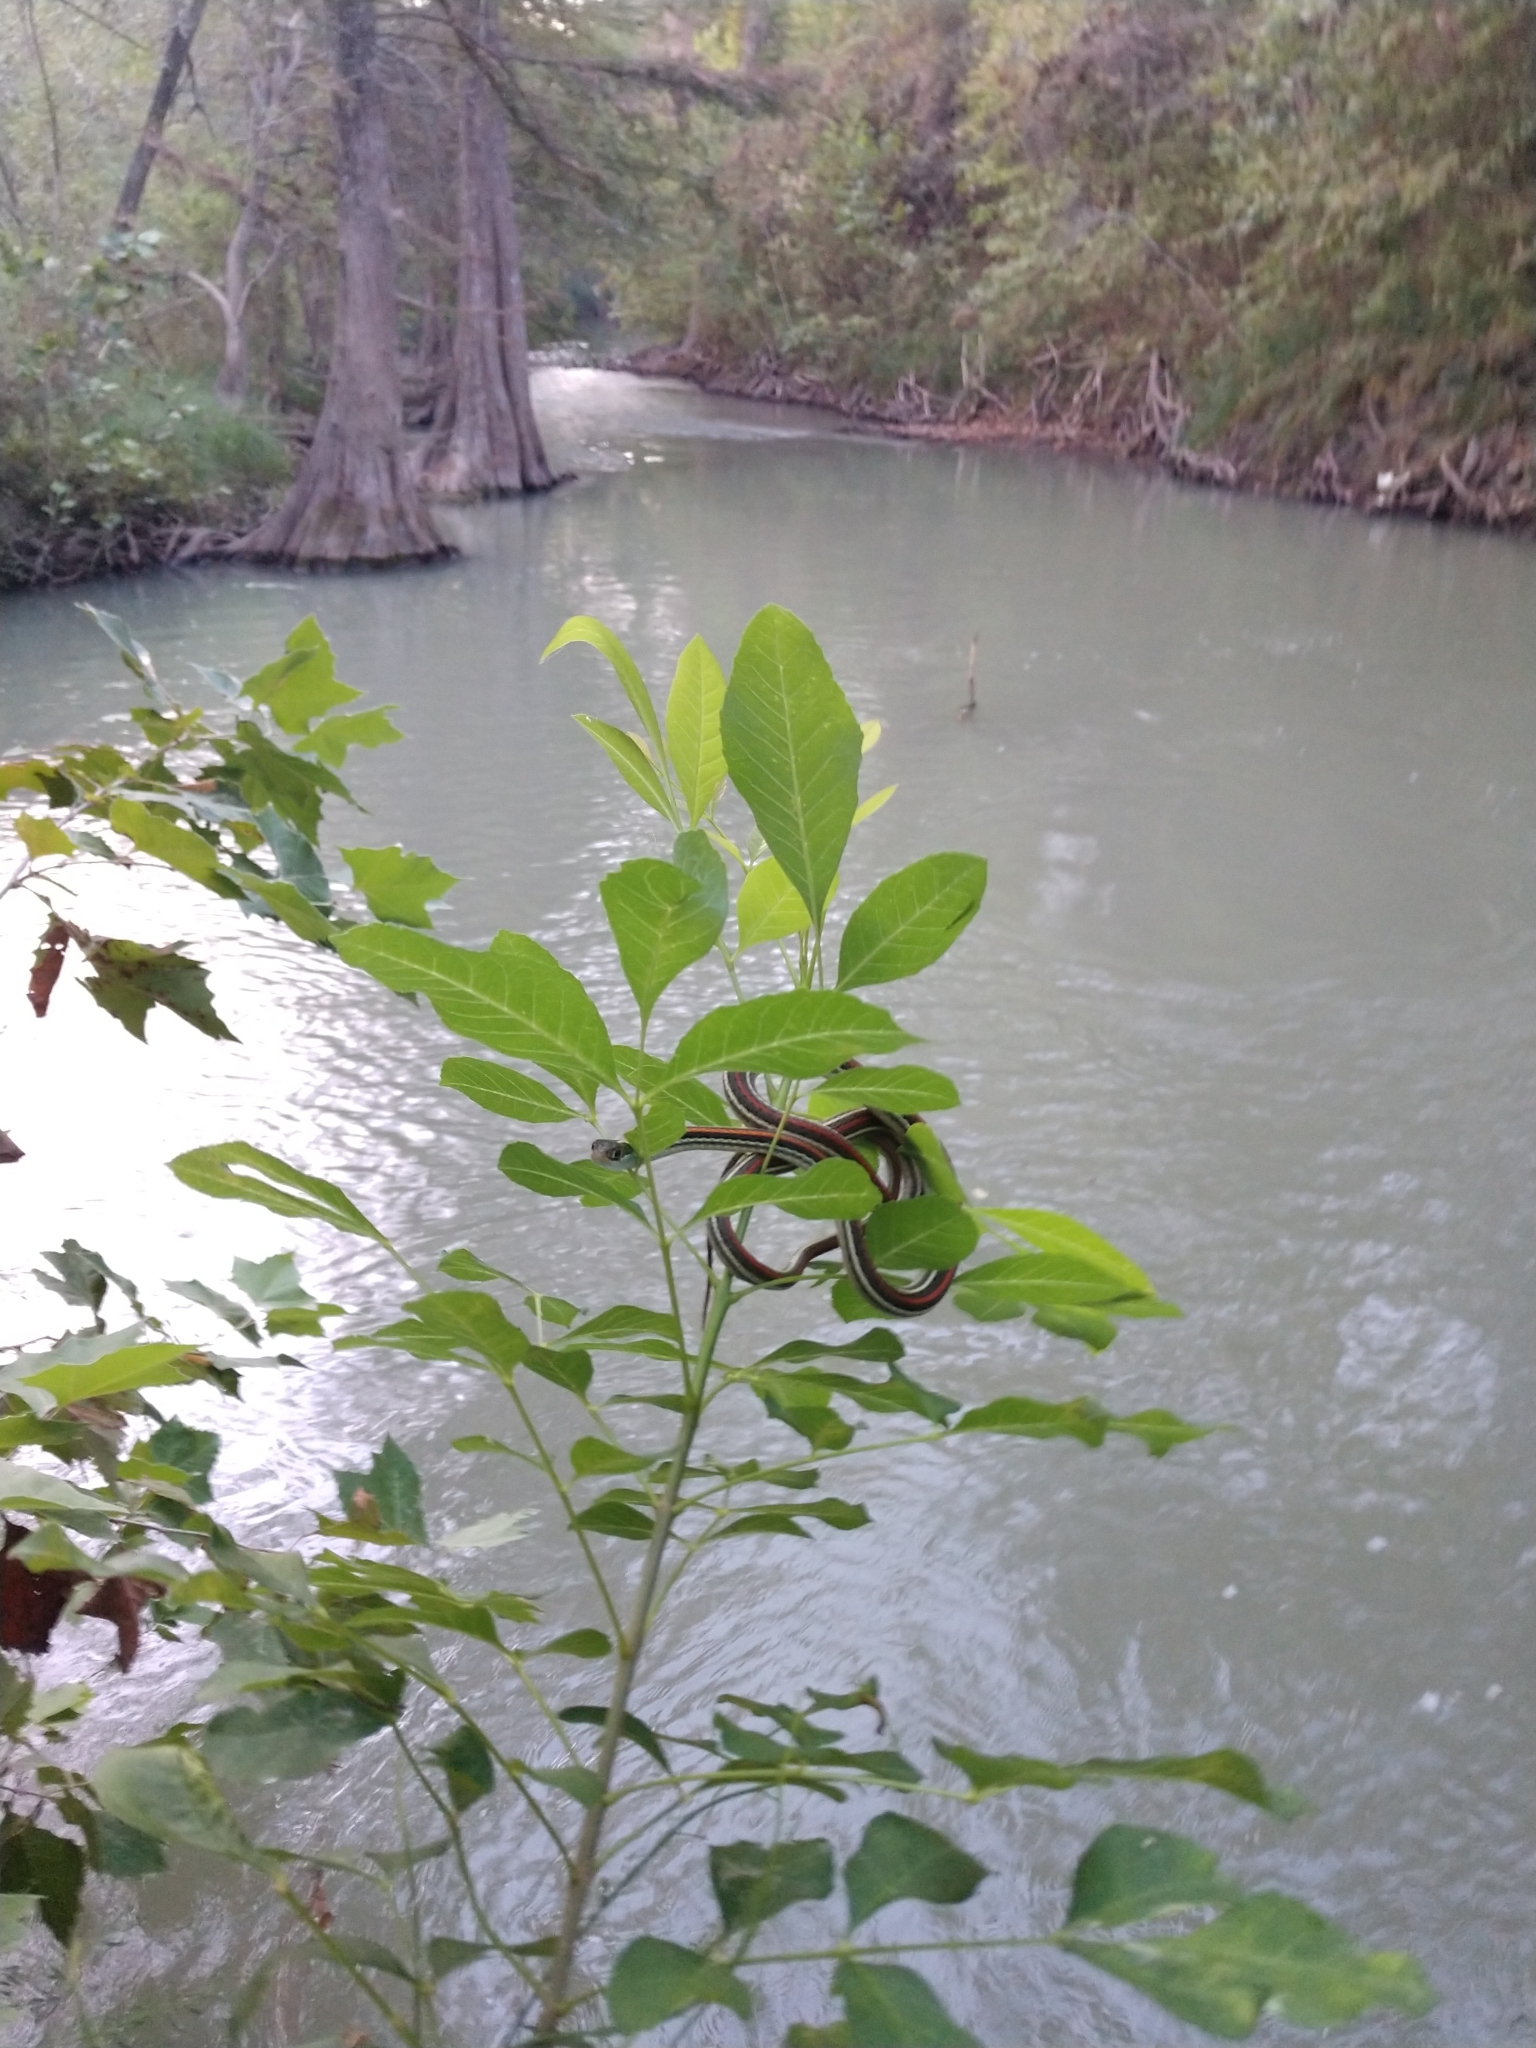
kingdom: Animalia
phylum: Chordata
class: Squamata
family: Colubridae
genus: Thamnophis
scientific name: Thamnophis proximus
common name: Western ribbon snake
